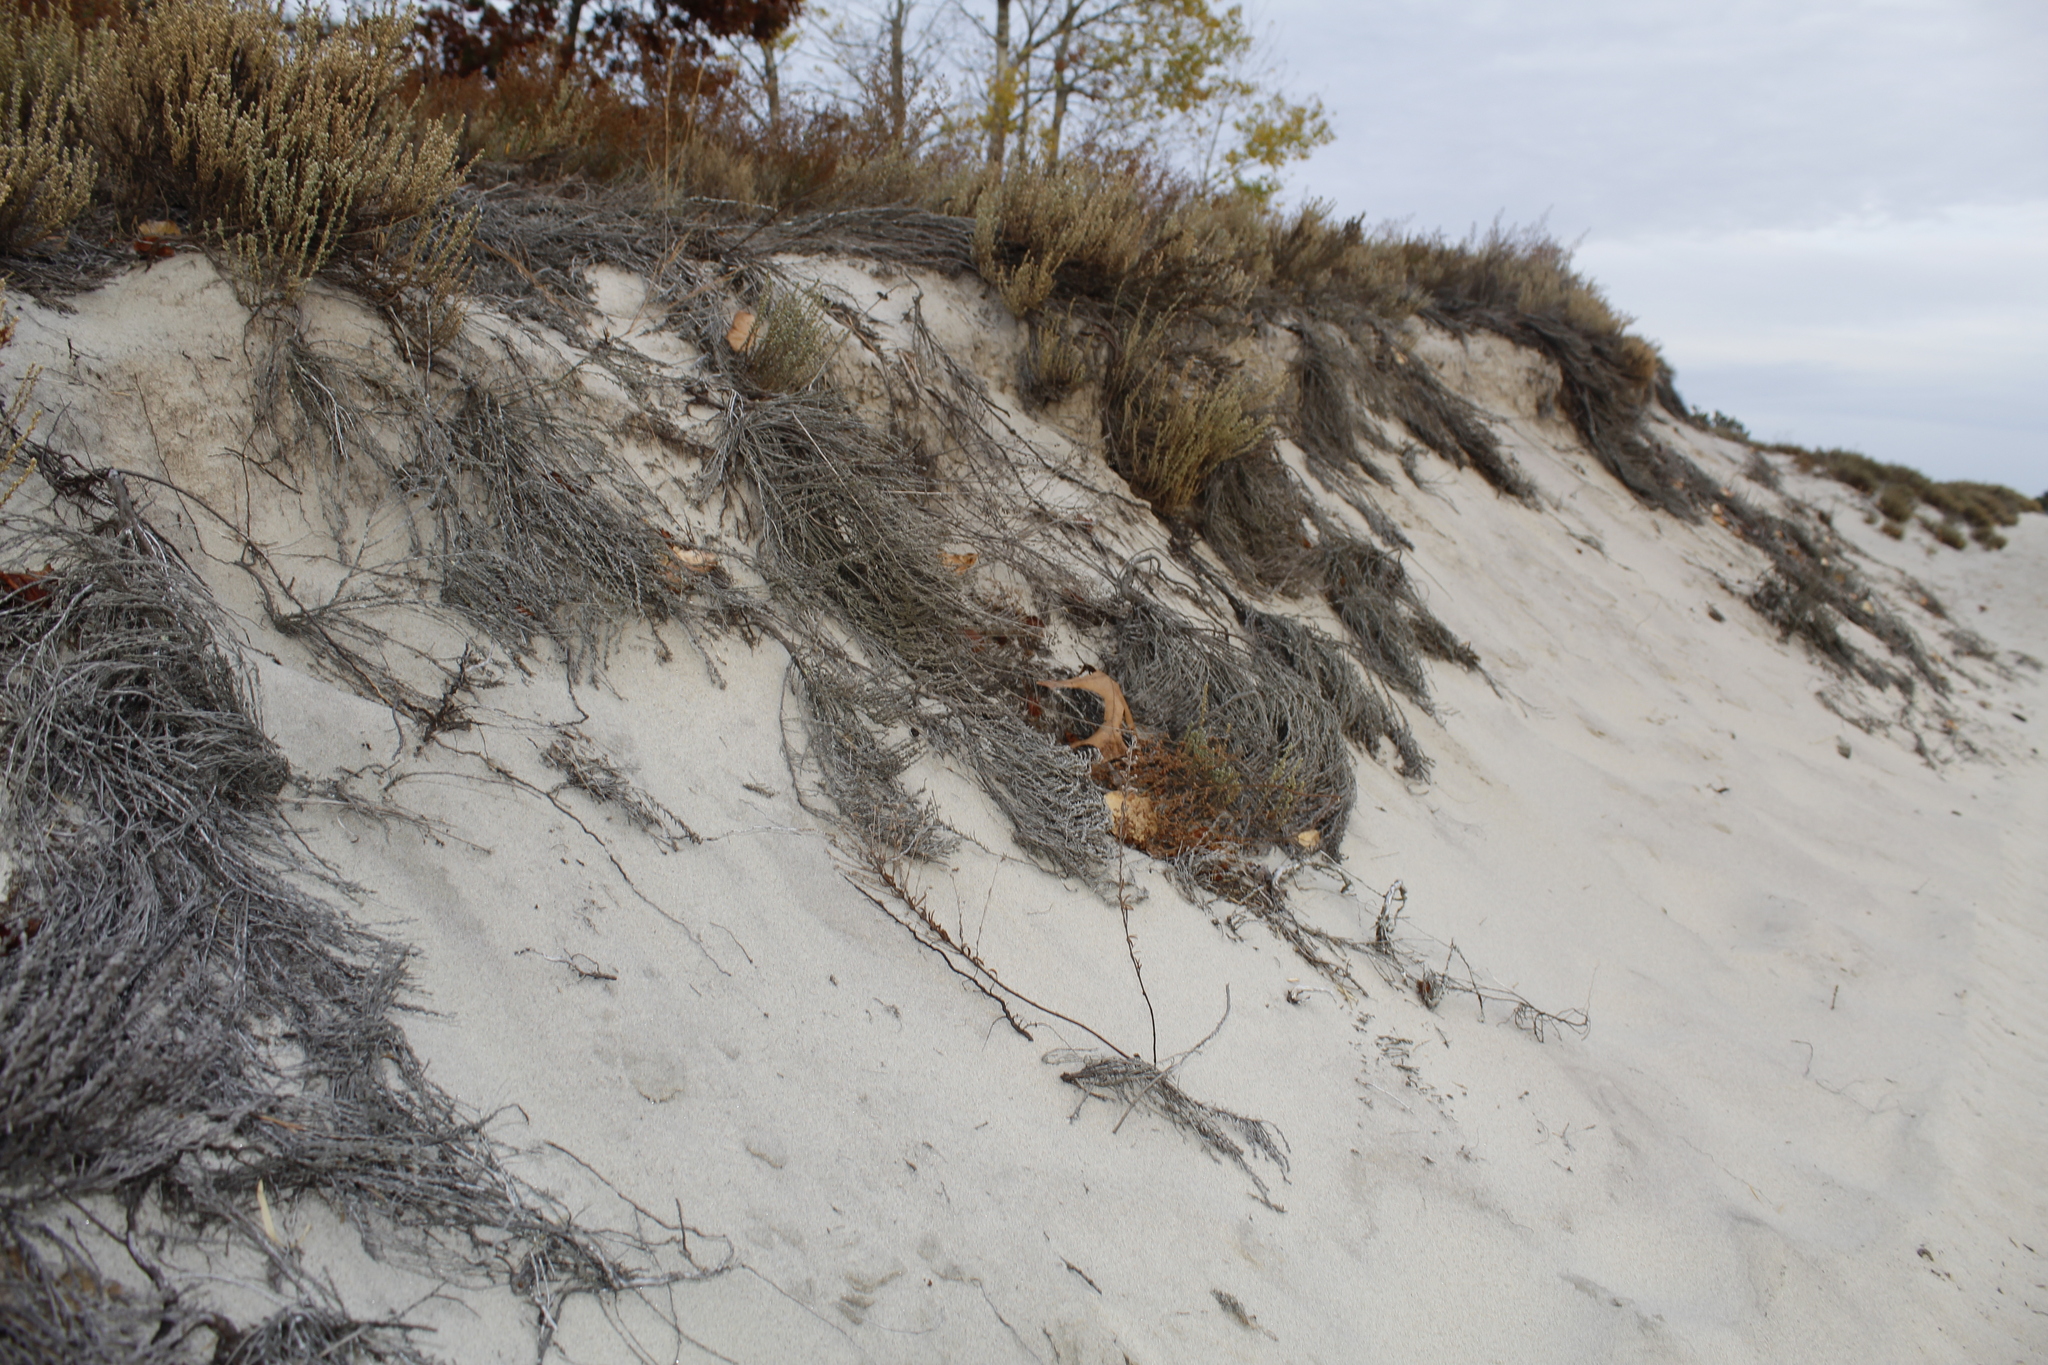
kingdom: Plantae
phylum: Tracheophyta
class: Magnoliopsida
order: Malvales
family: Cistaceae
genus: Hudsonia
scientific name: Hudsonia tomentosa
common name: Beach-heath
